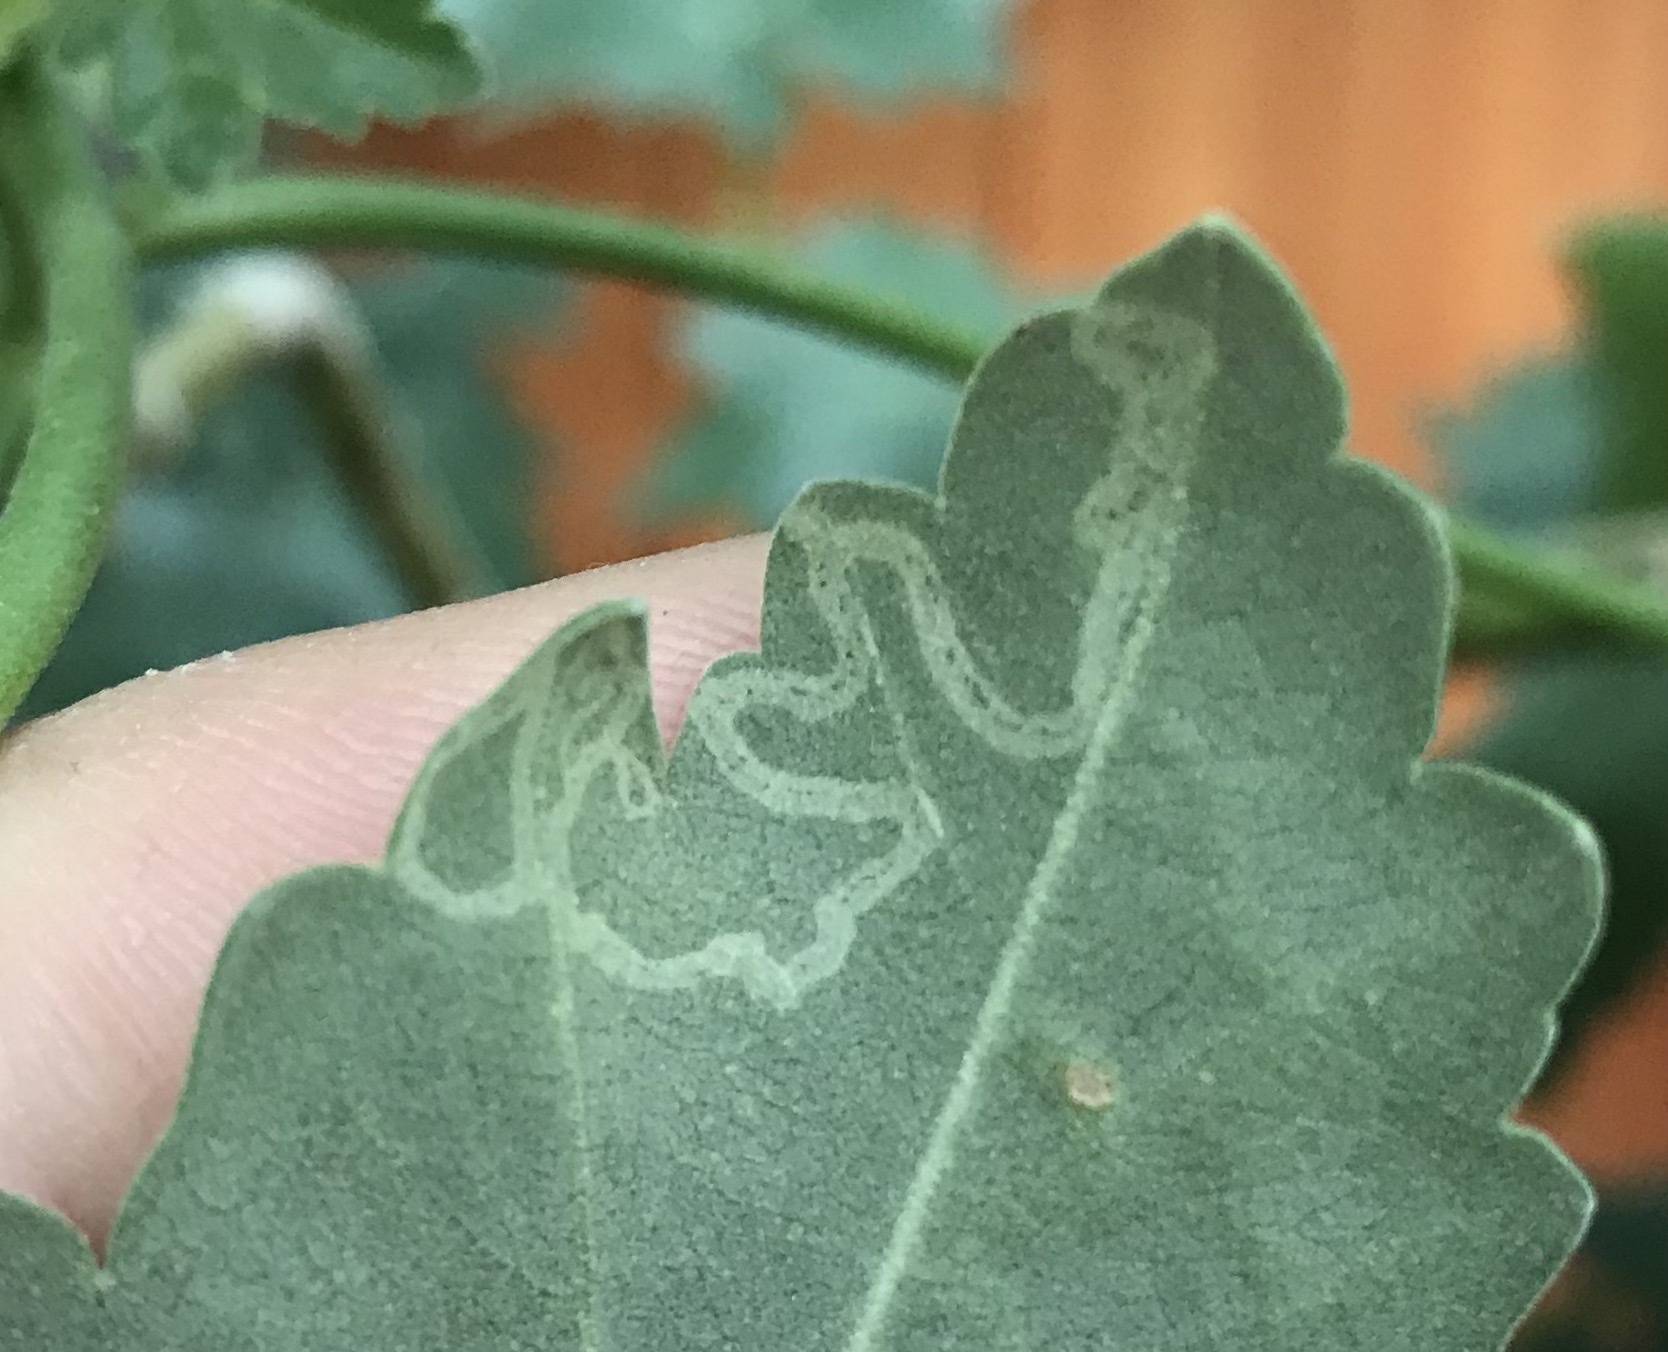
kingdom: Animalia
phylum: Arthropoda
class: Insecta
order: Diptera
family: Agromyzidae
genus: Calycomyza
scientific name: Calycomyza malvae
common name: Mallow leaf miner
